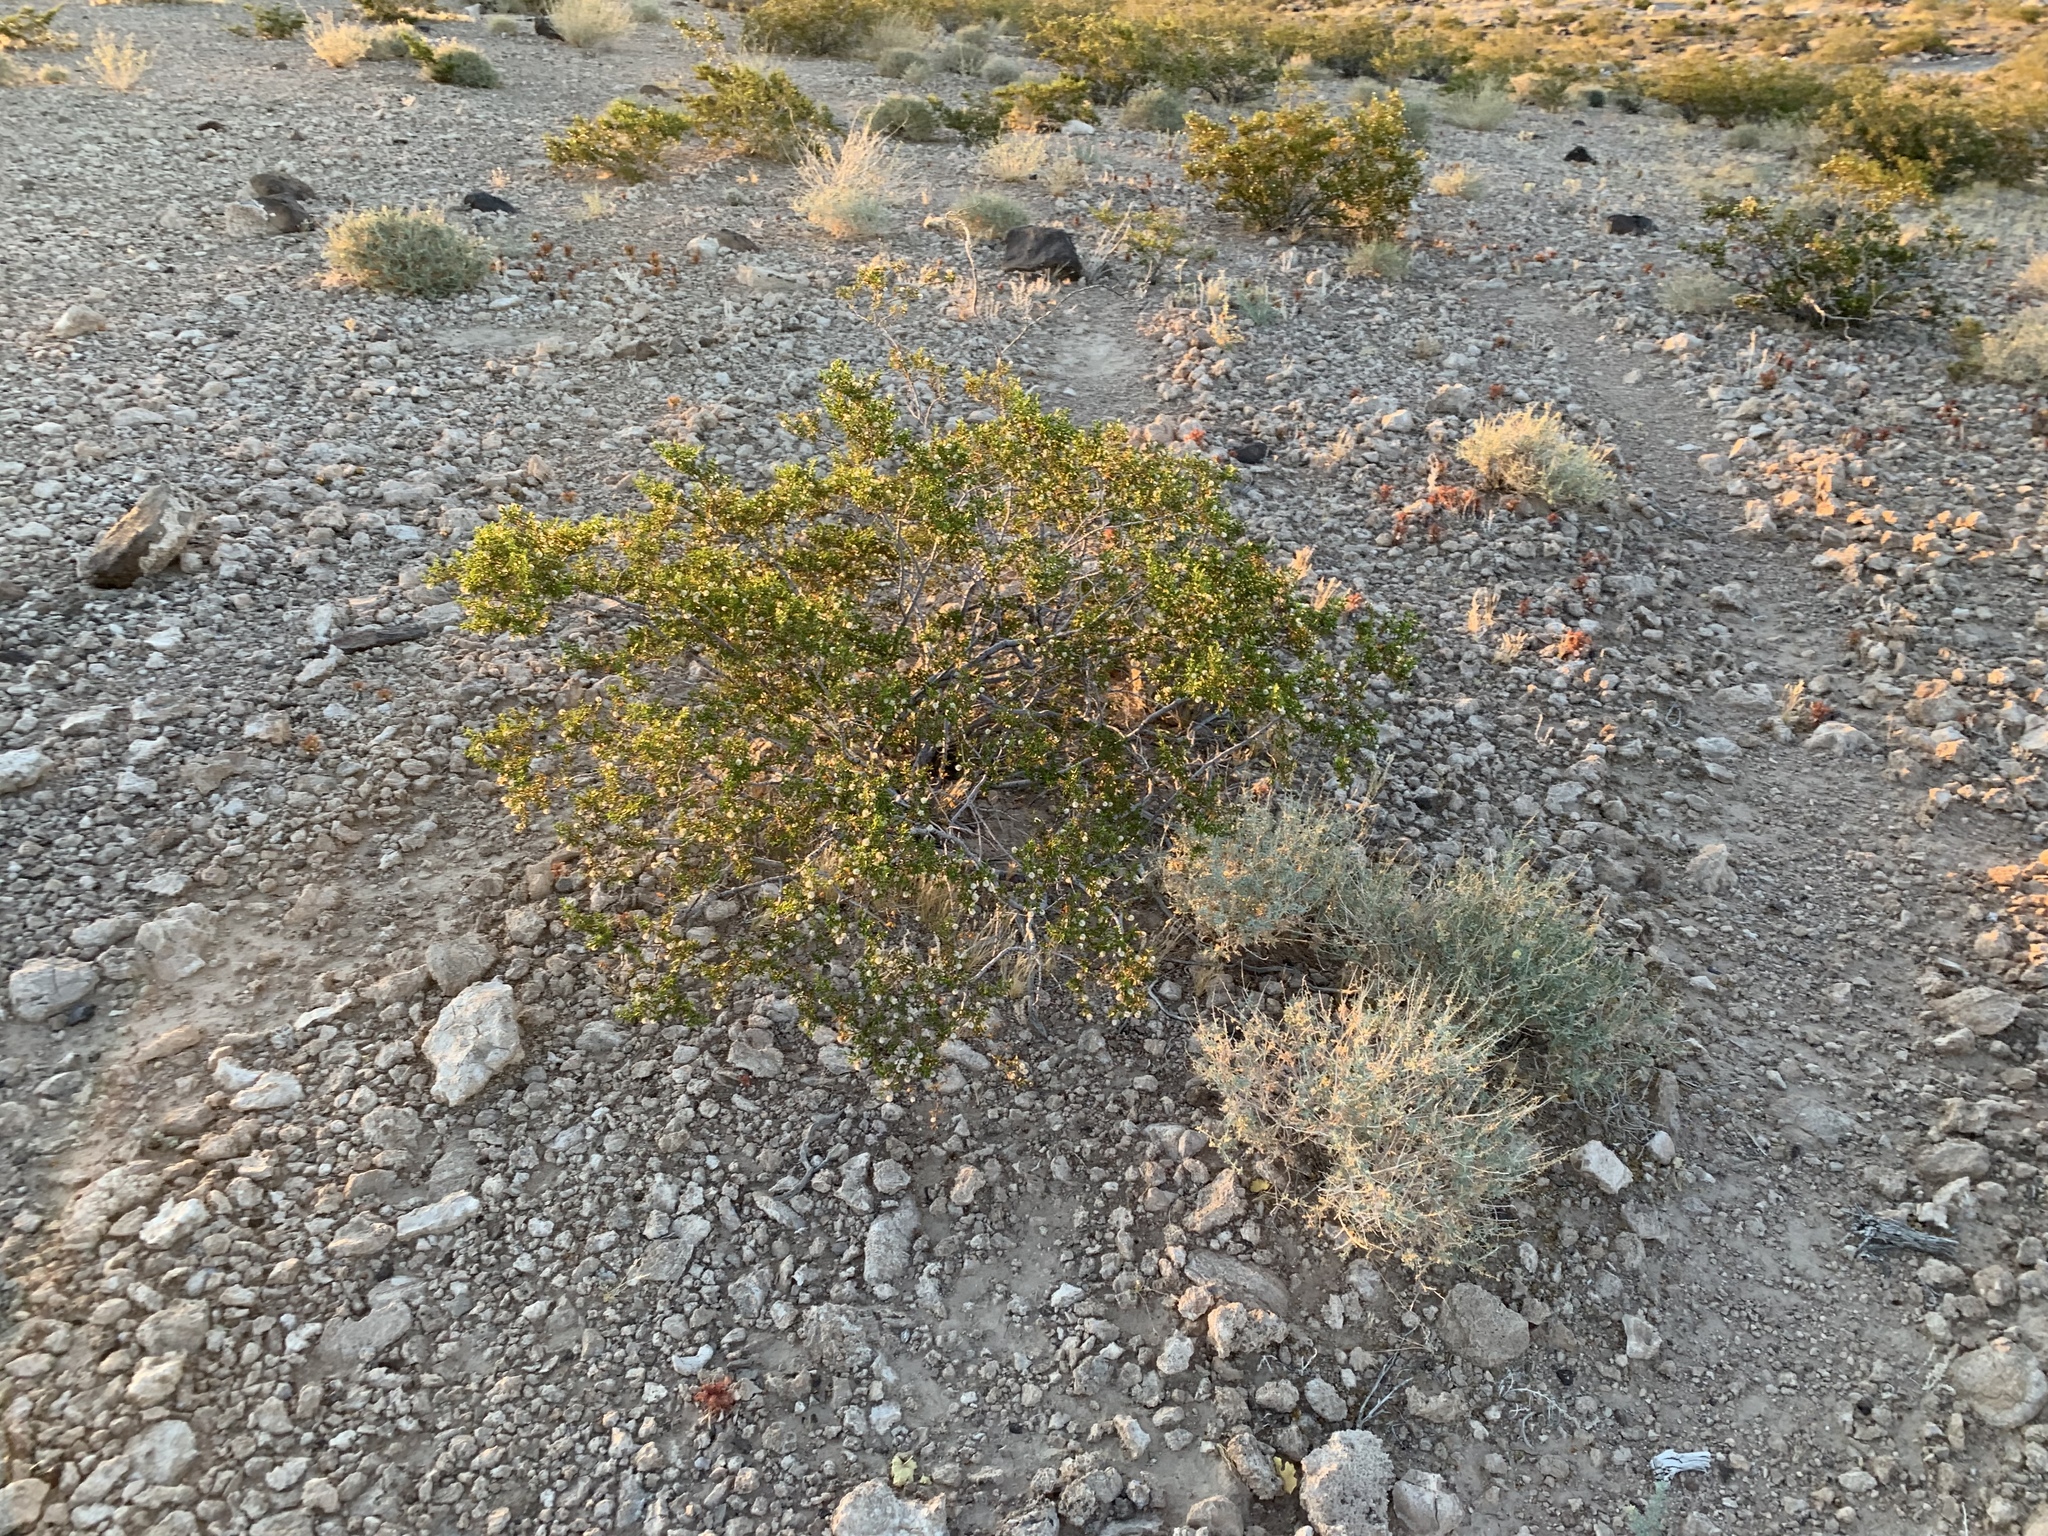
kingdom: Plantae
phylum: Tracheophyta
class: Magnoliopsida
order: Zygophyllales
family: Zygophyllaceae
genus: Larrea
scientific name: Larrea tridentata
